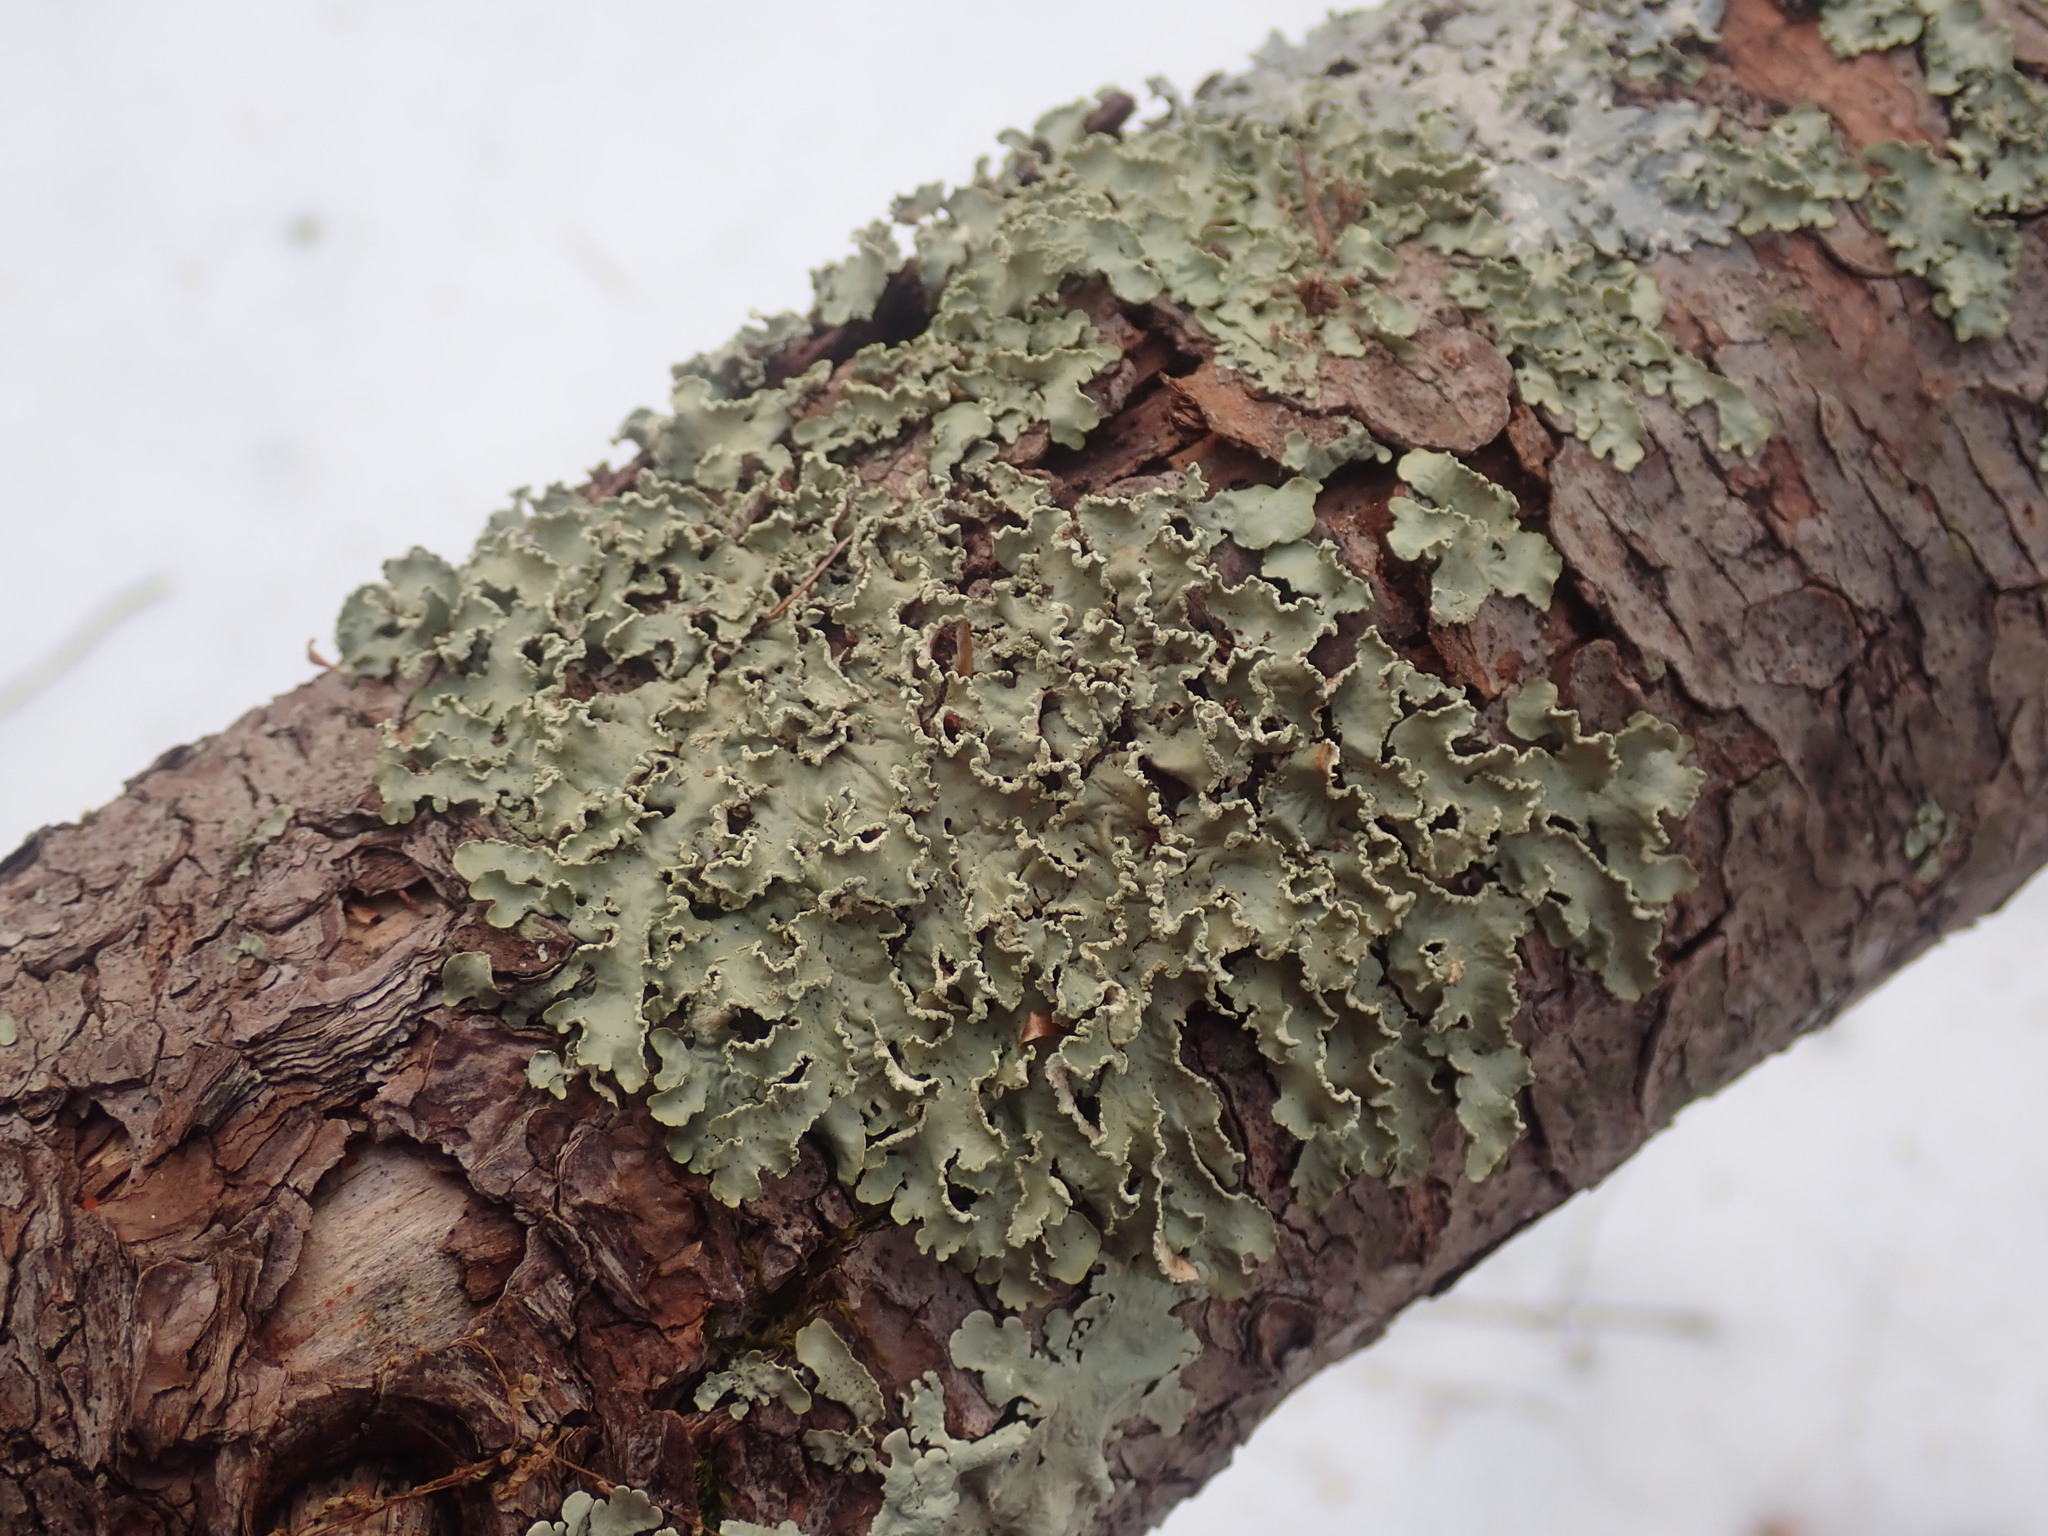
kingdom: Fungi
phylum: Ascomycota
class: Lecanoromycetes
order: Lecanorales
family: Parmeliaceae
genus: Usnocetraria
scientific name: Usnocetraria oakesiana
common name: Yellow ribbon lichen
